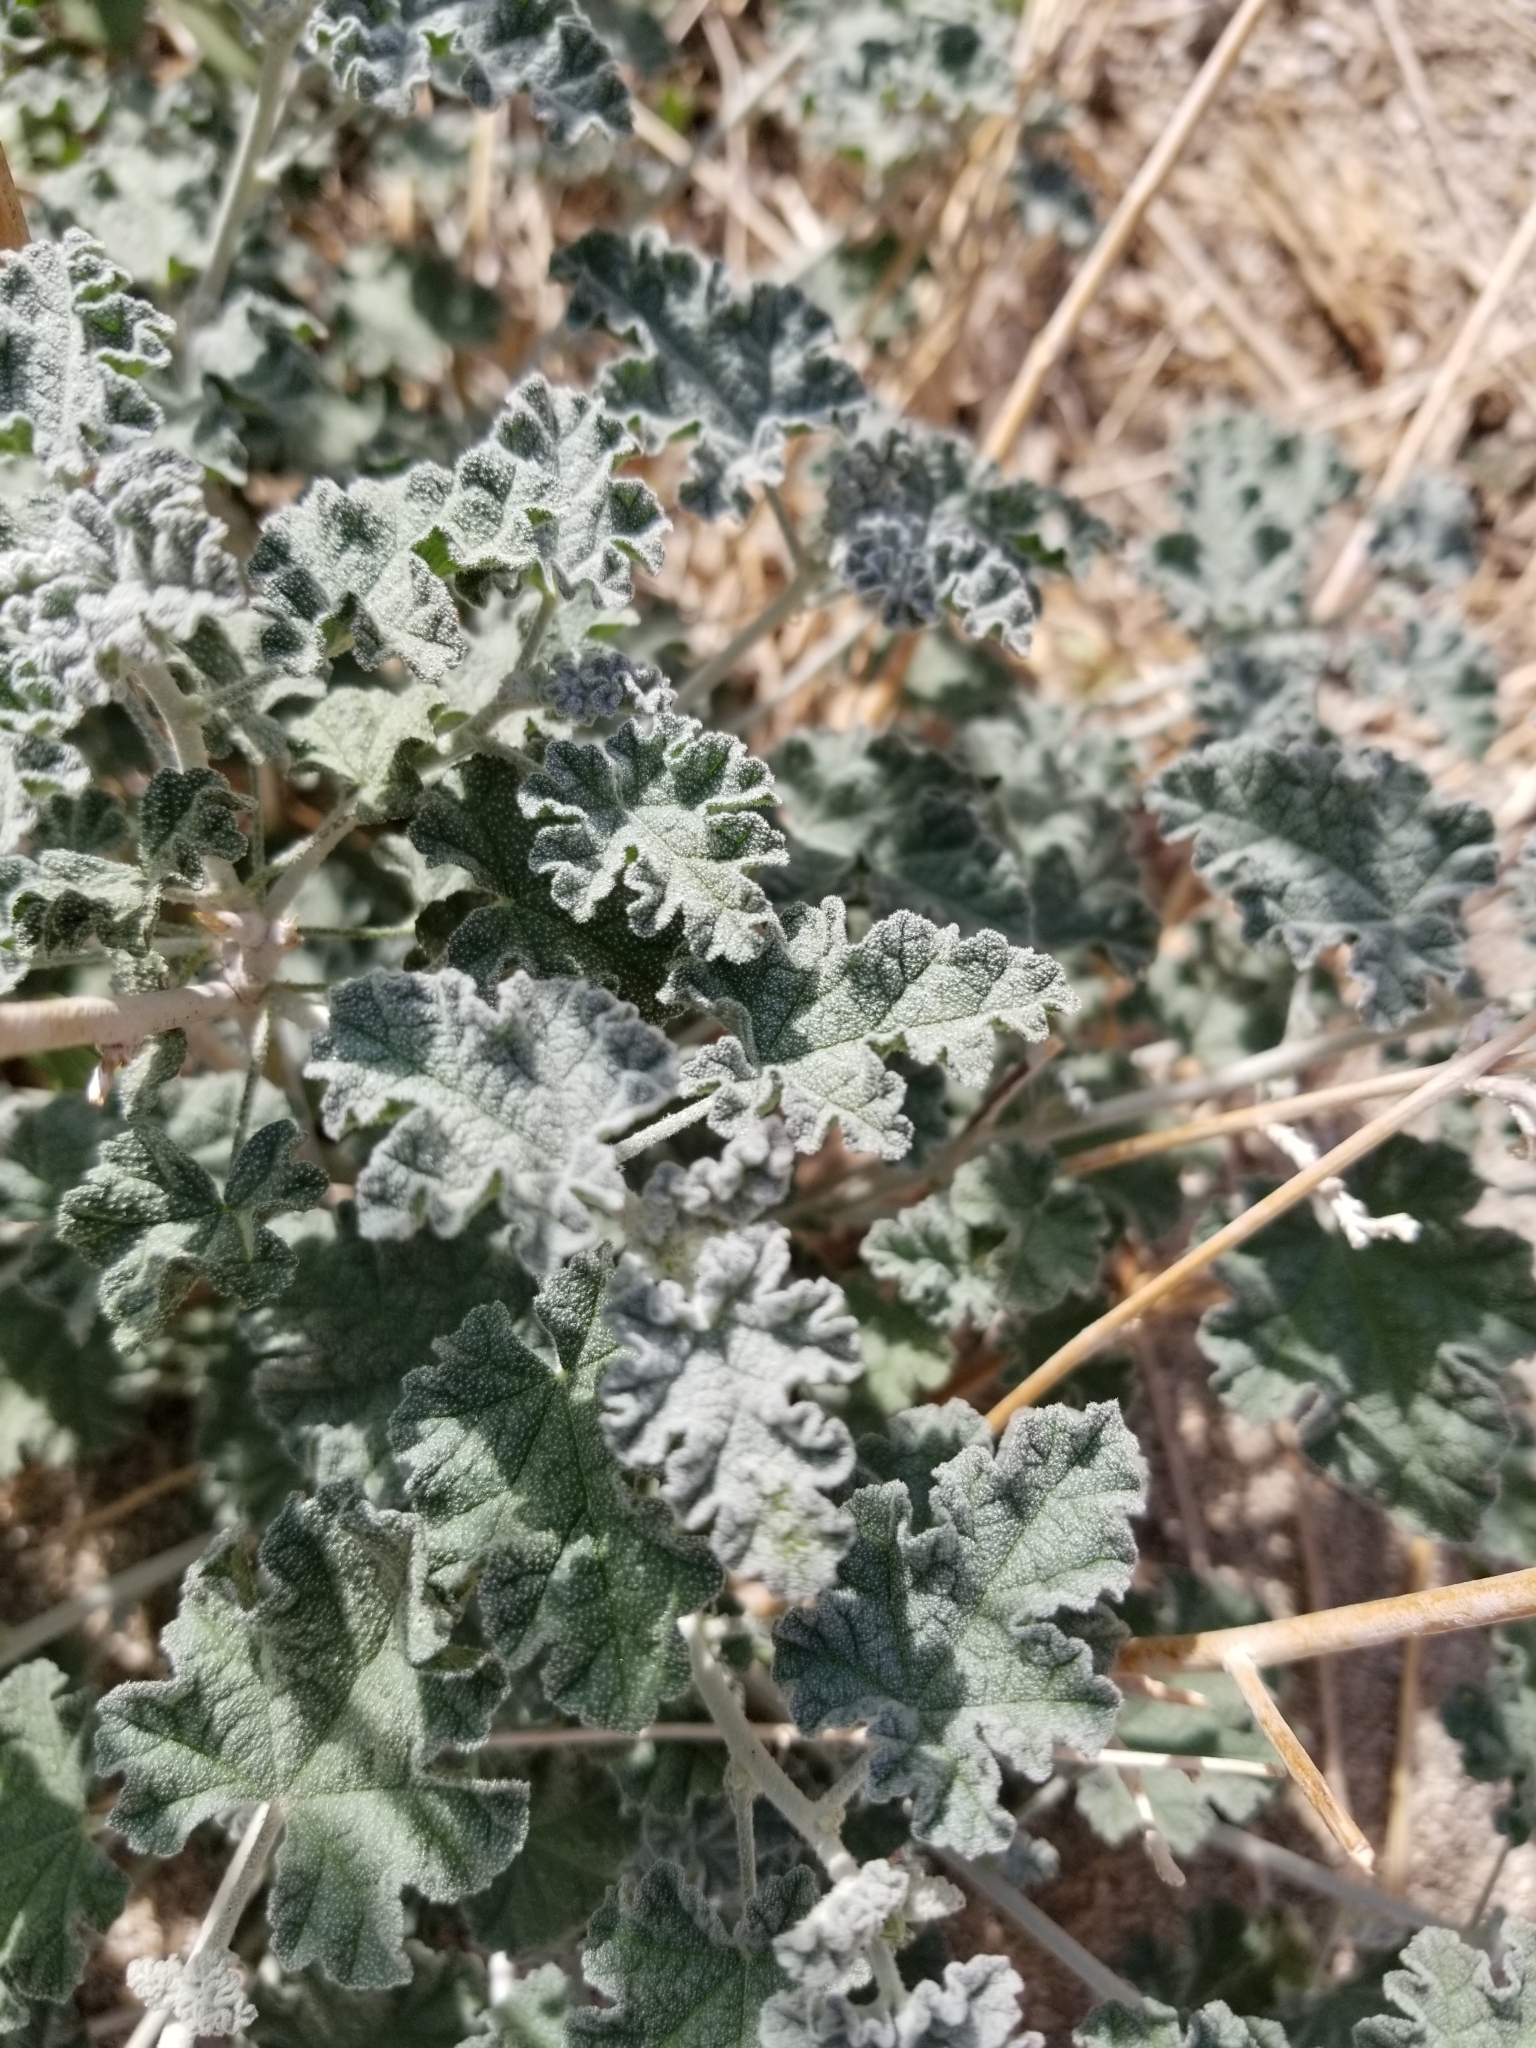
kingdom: Plantae
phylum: Tracheophyta
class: Magnoliopsida
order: Malvales
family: Malvaceae
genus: Sphaeralcea
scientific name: Sphaeralcea ambigua
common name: Apricot globe-mallow
